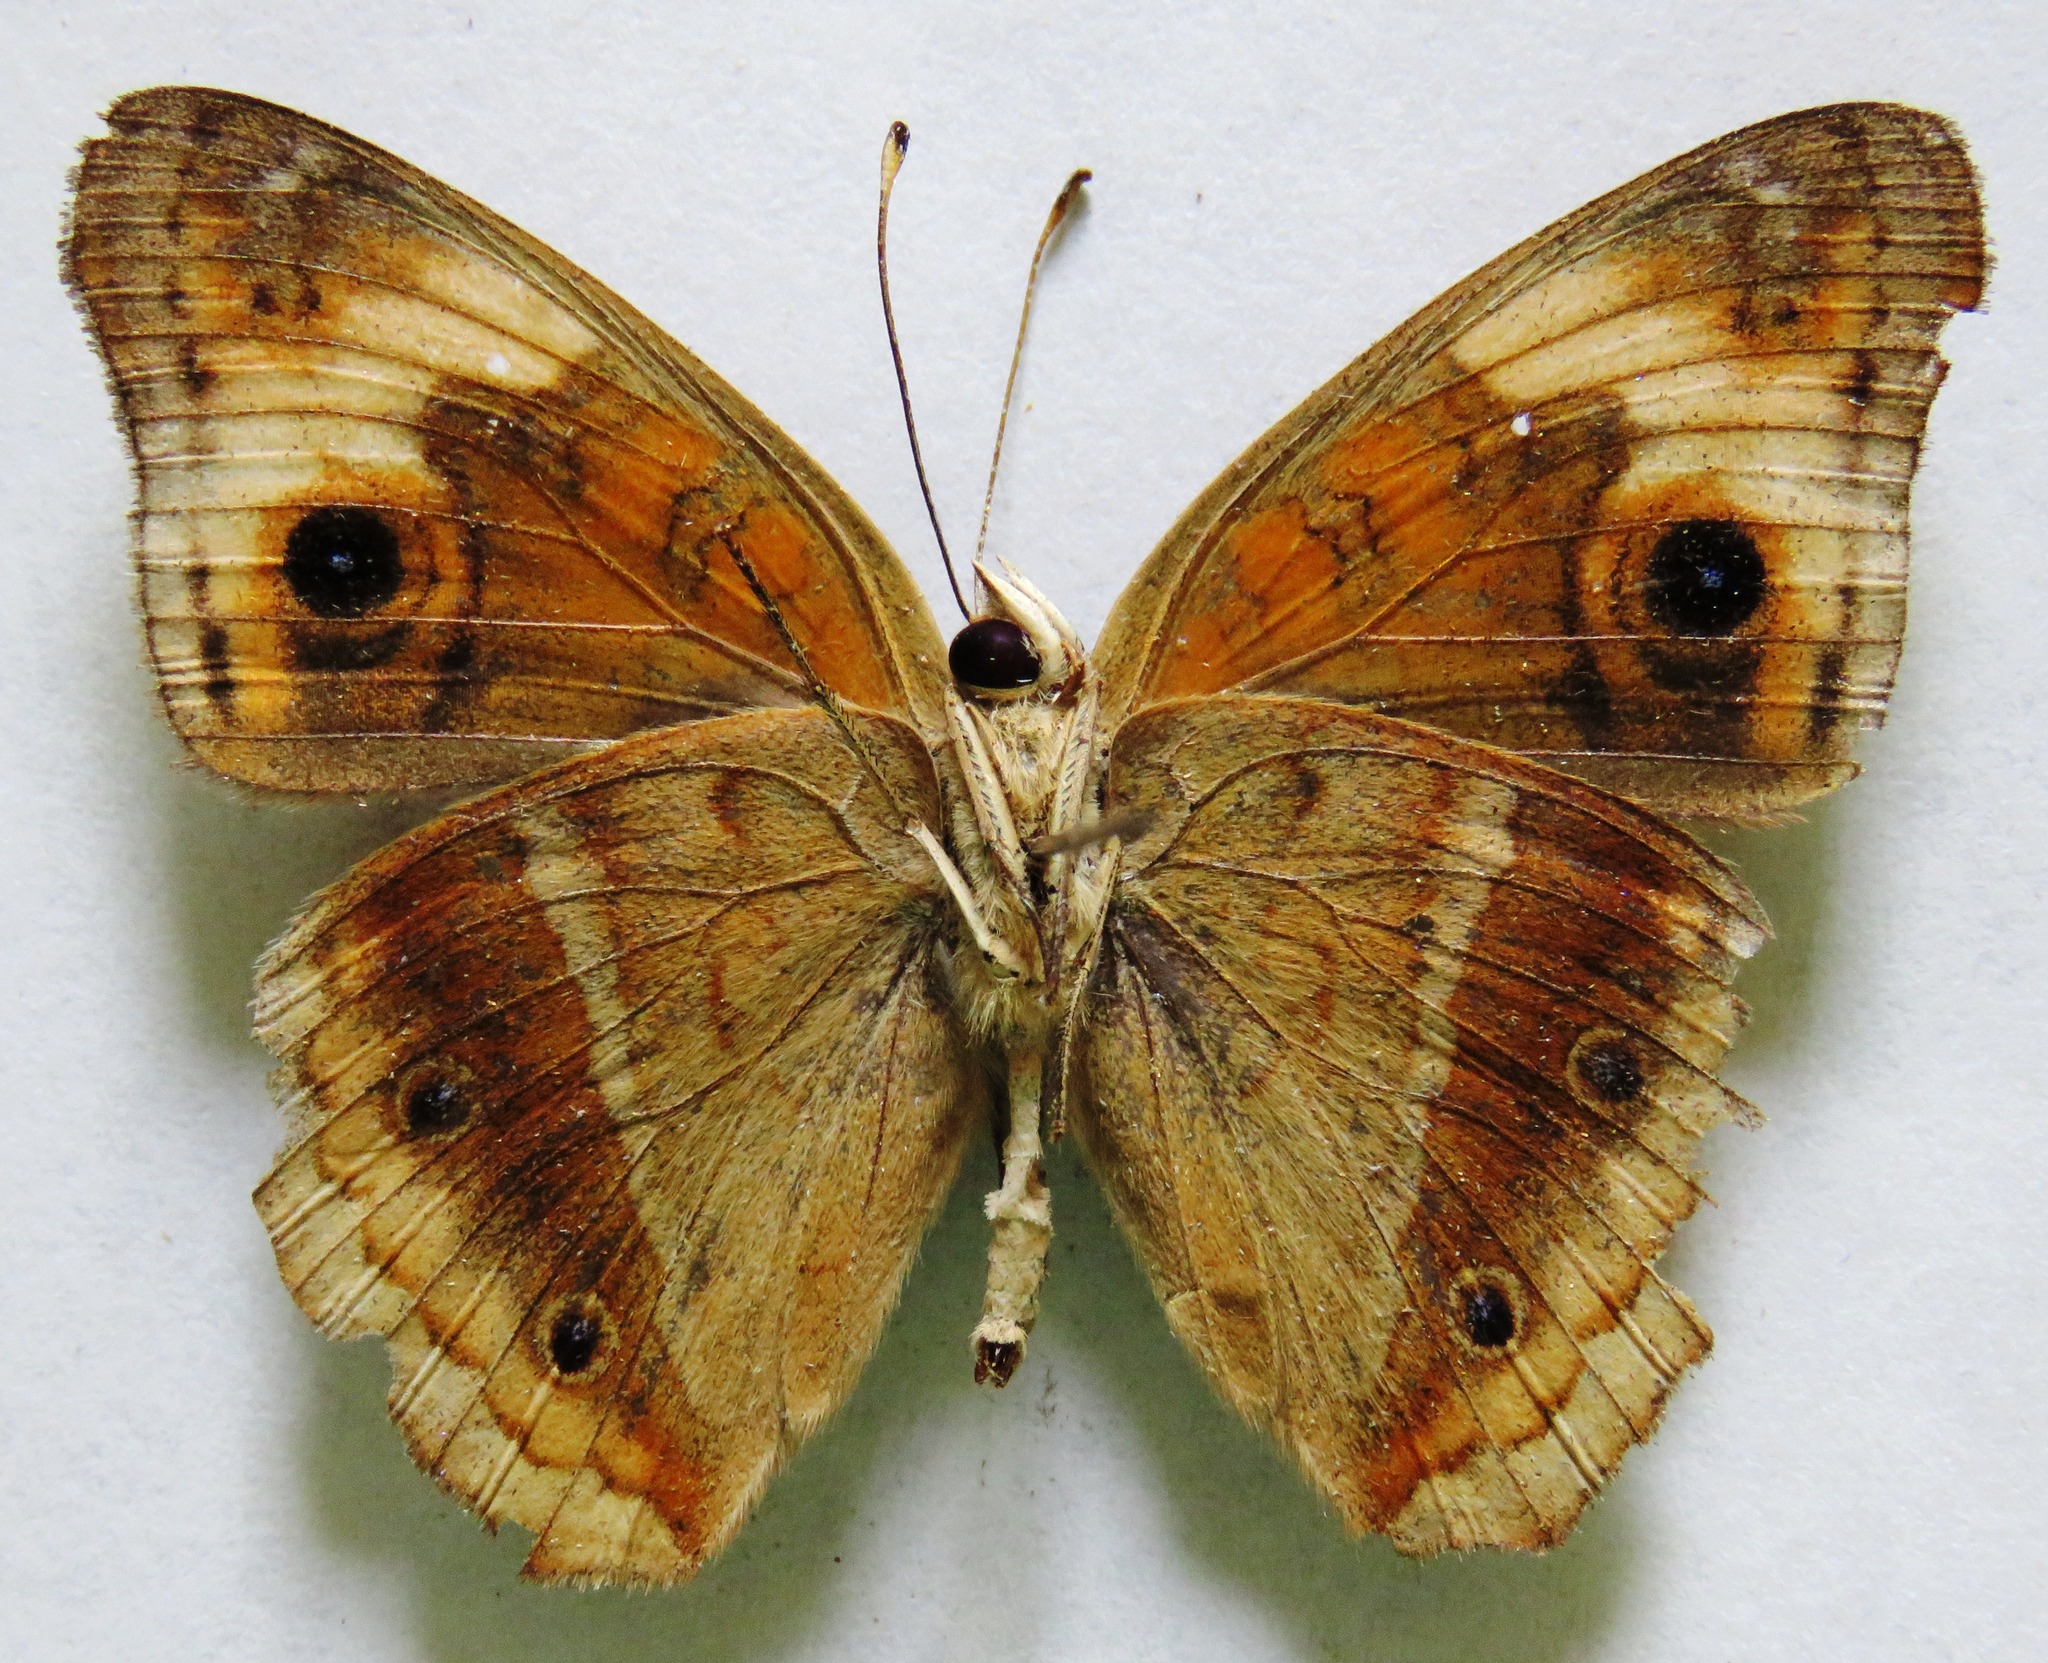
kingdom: Animalia
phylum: Arthropoda
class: Insecta
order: Lepidoptera
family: Nymphalidae
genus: Junonia
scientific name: Junonia lavinia
